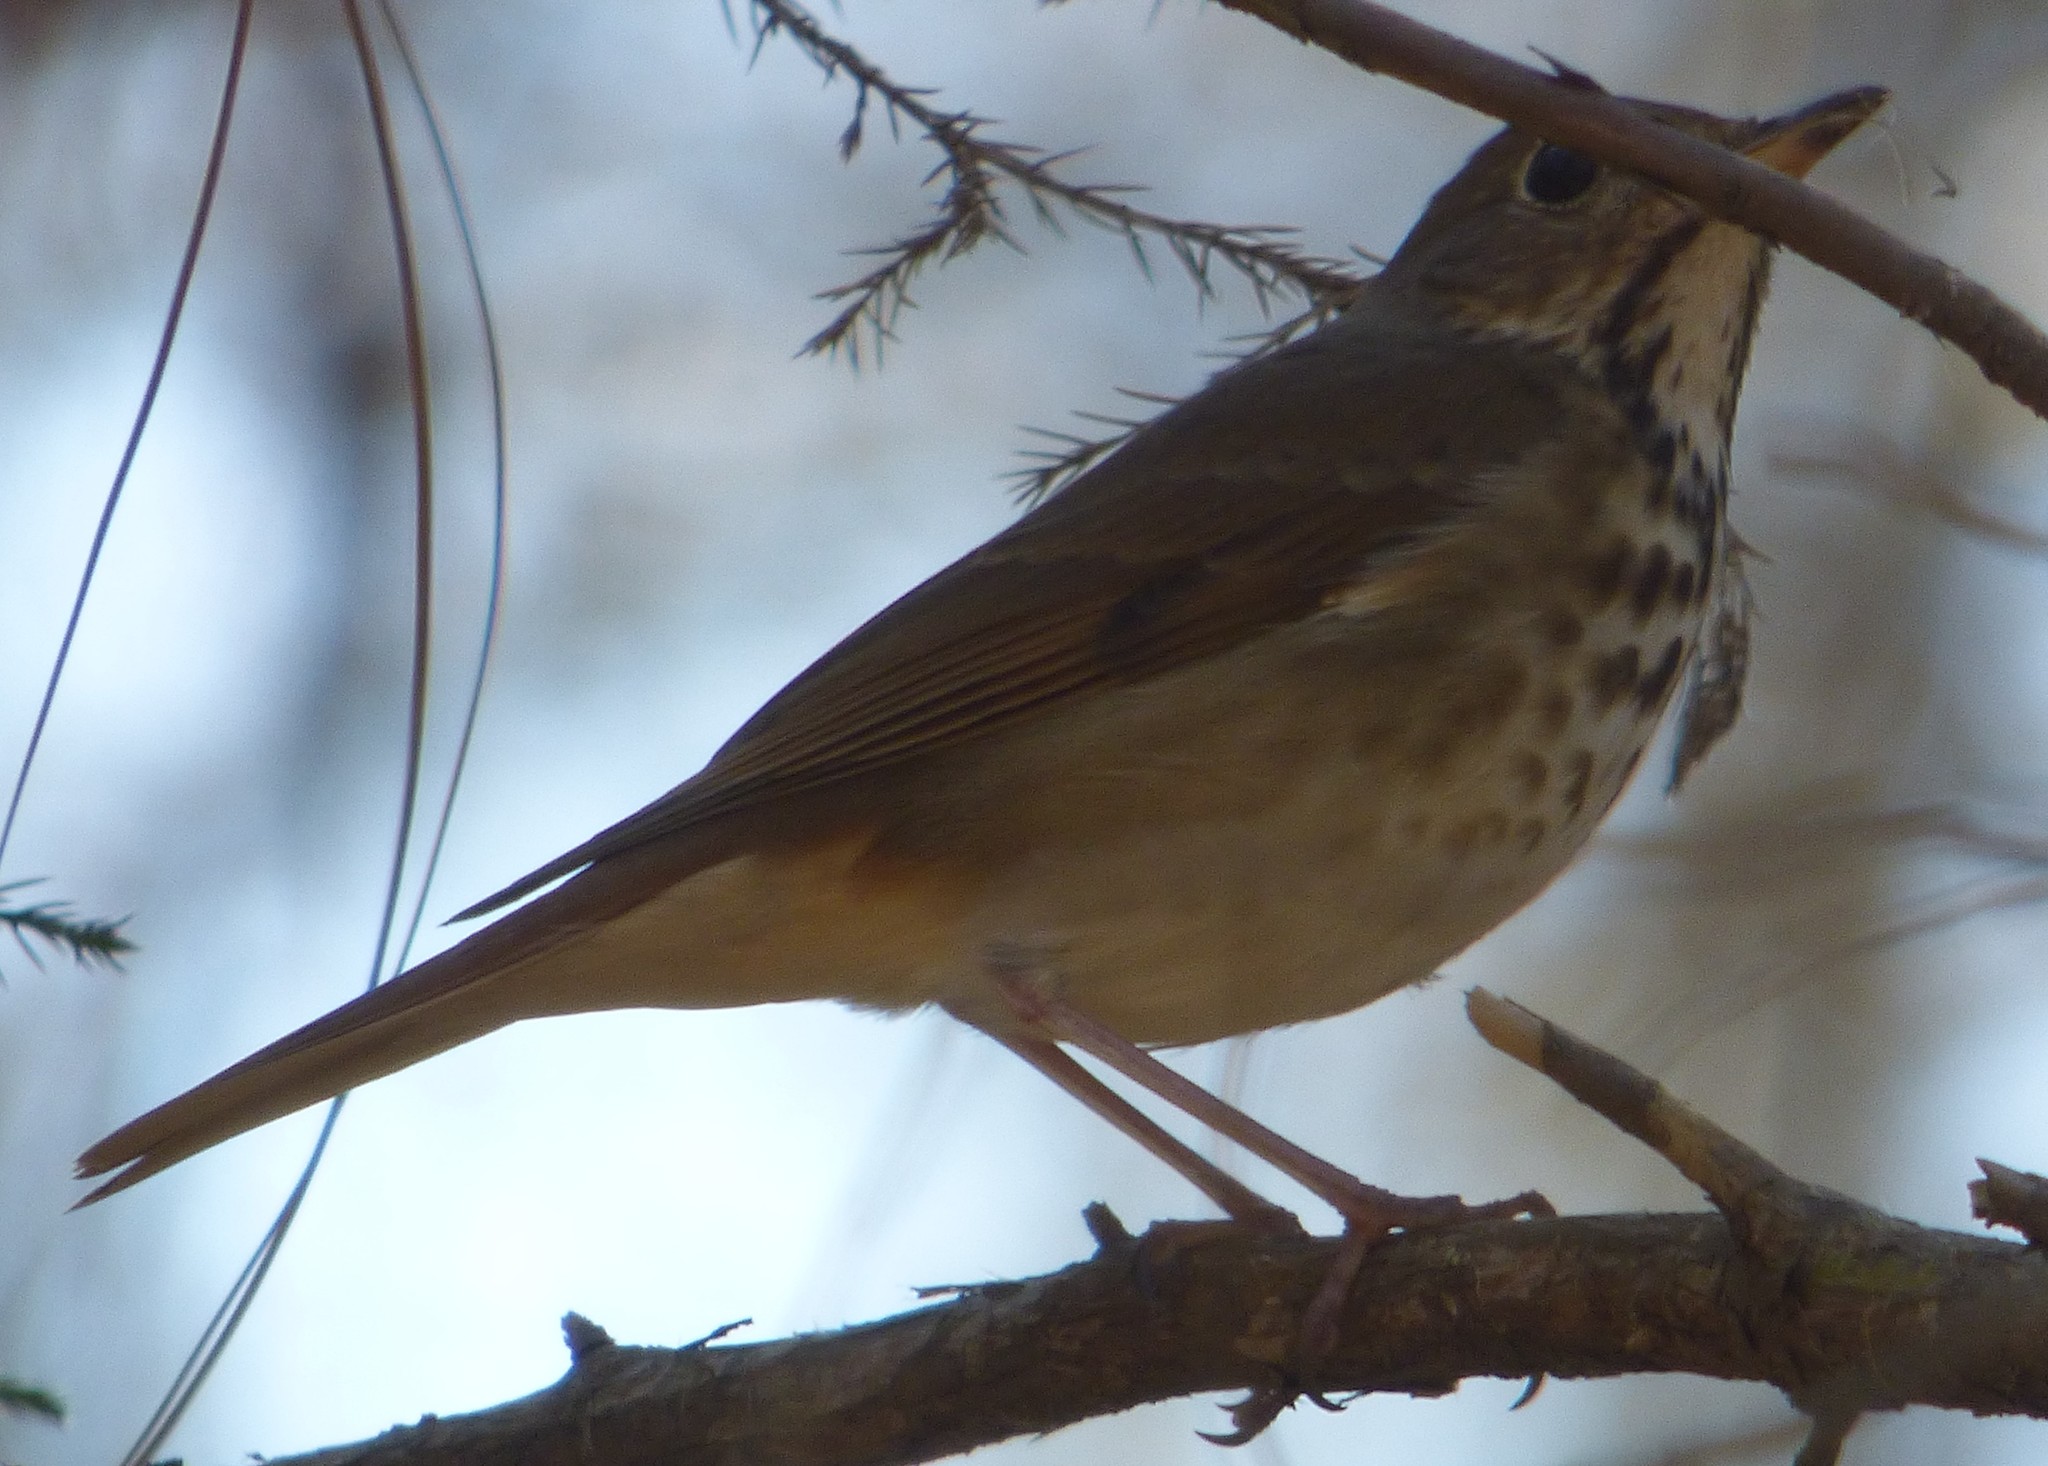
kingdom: Animalia
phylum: Chordata
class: Aves
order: Passeriformes
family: Turdidae
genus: Catharus
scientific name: Catharus guttatus
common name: Hermit thrush
